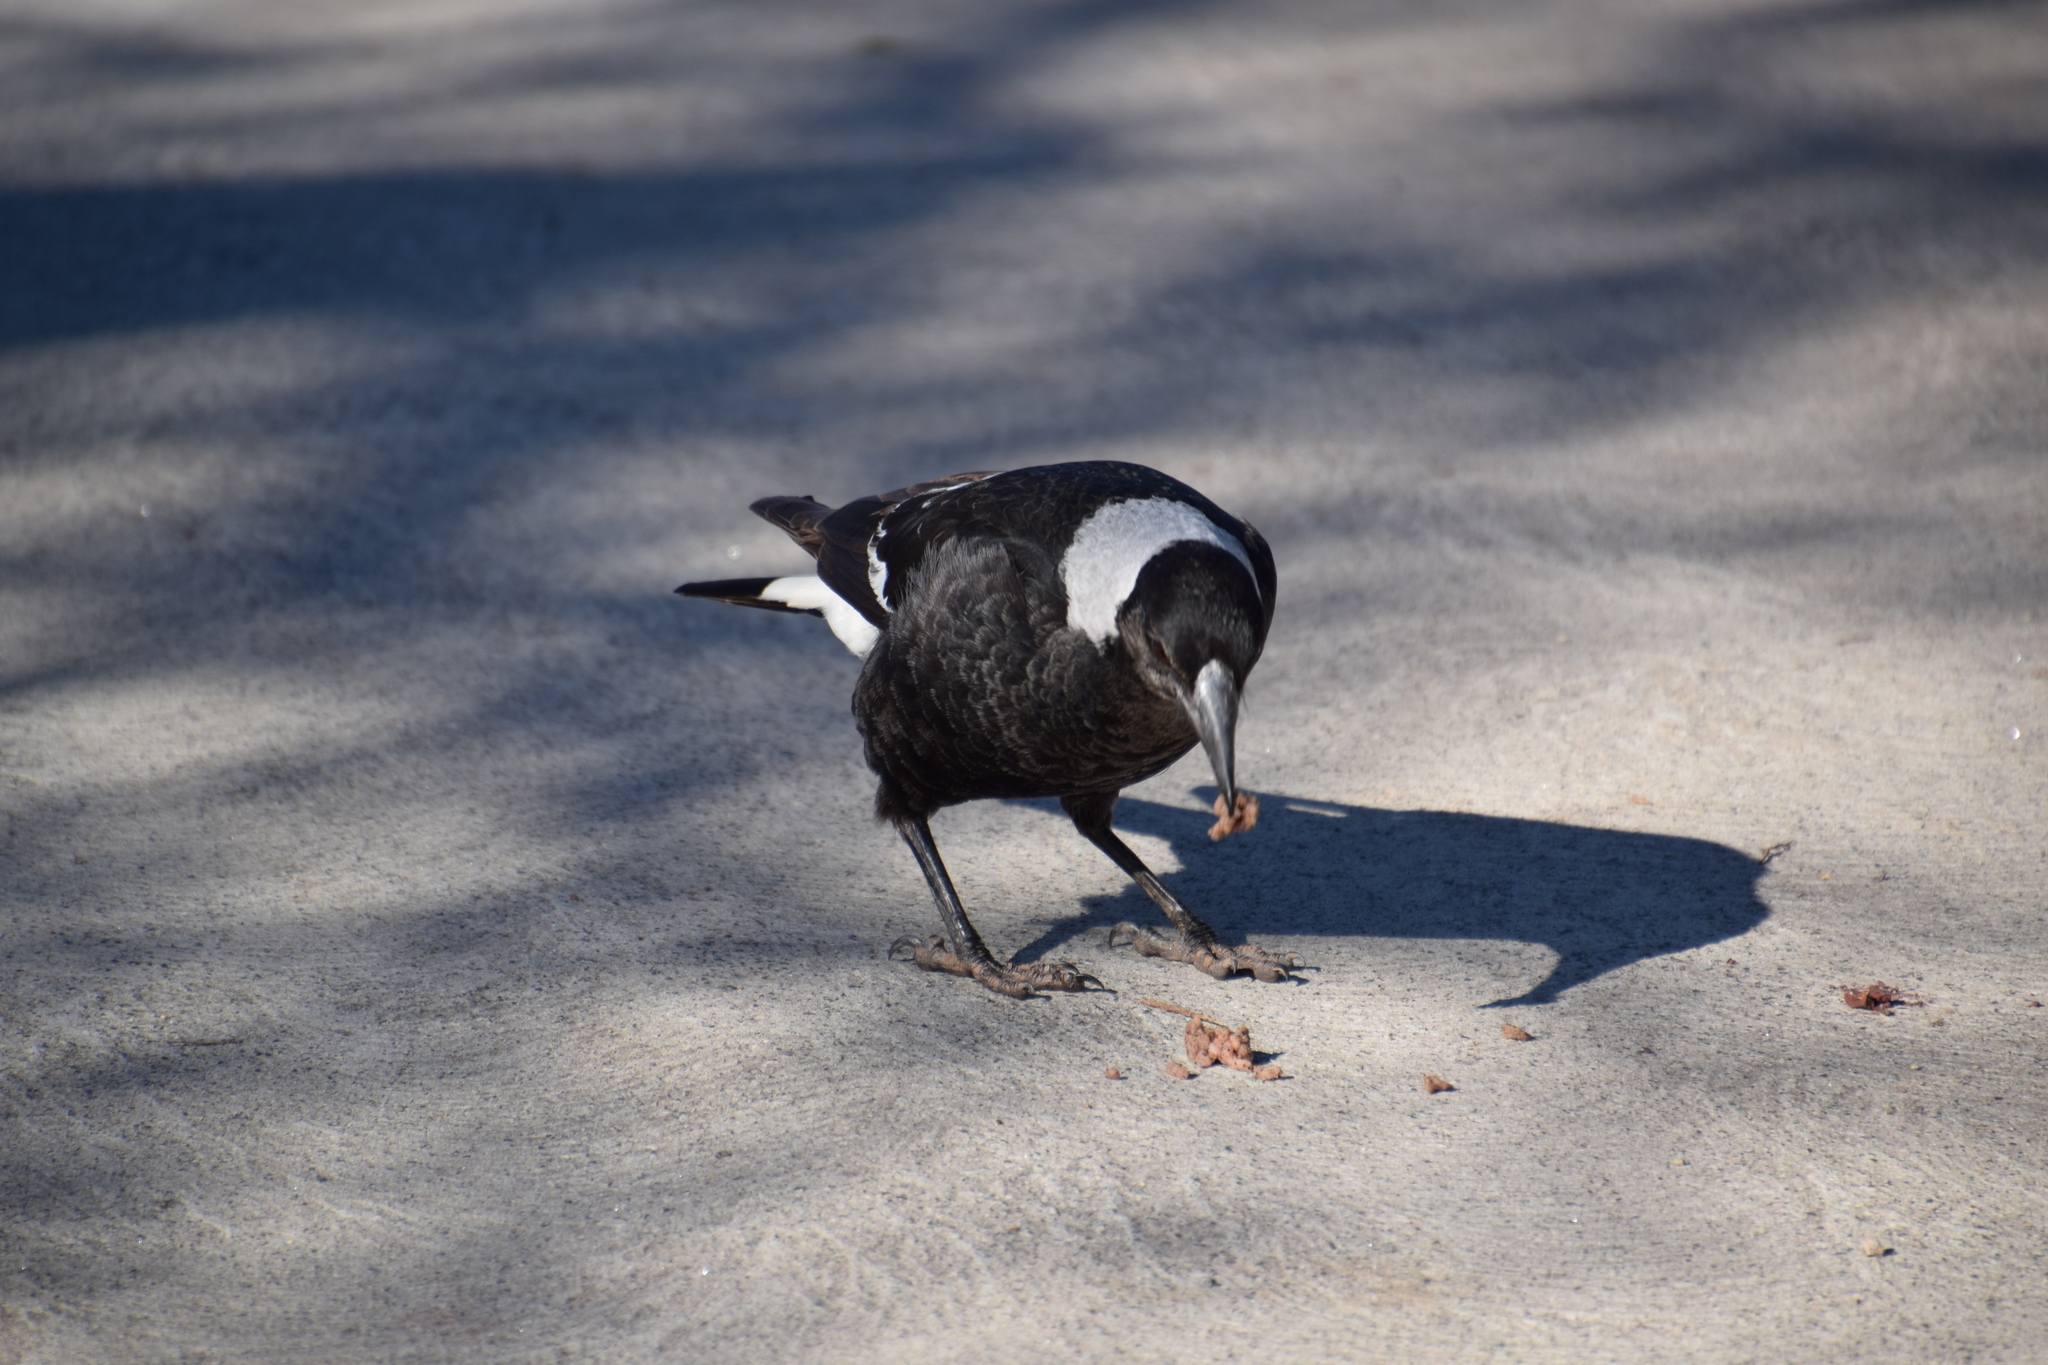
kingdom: Animalia
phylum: Chordata
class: Aves
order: Passeriformes
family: Cracticidae
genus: Gymnorhina
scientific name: Gymnorhina tibicen
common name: Australian magpie
